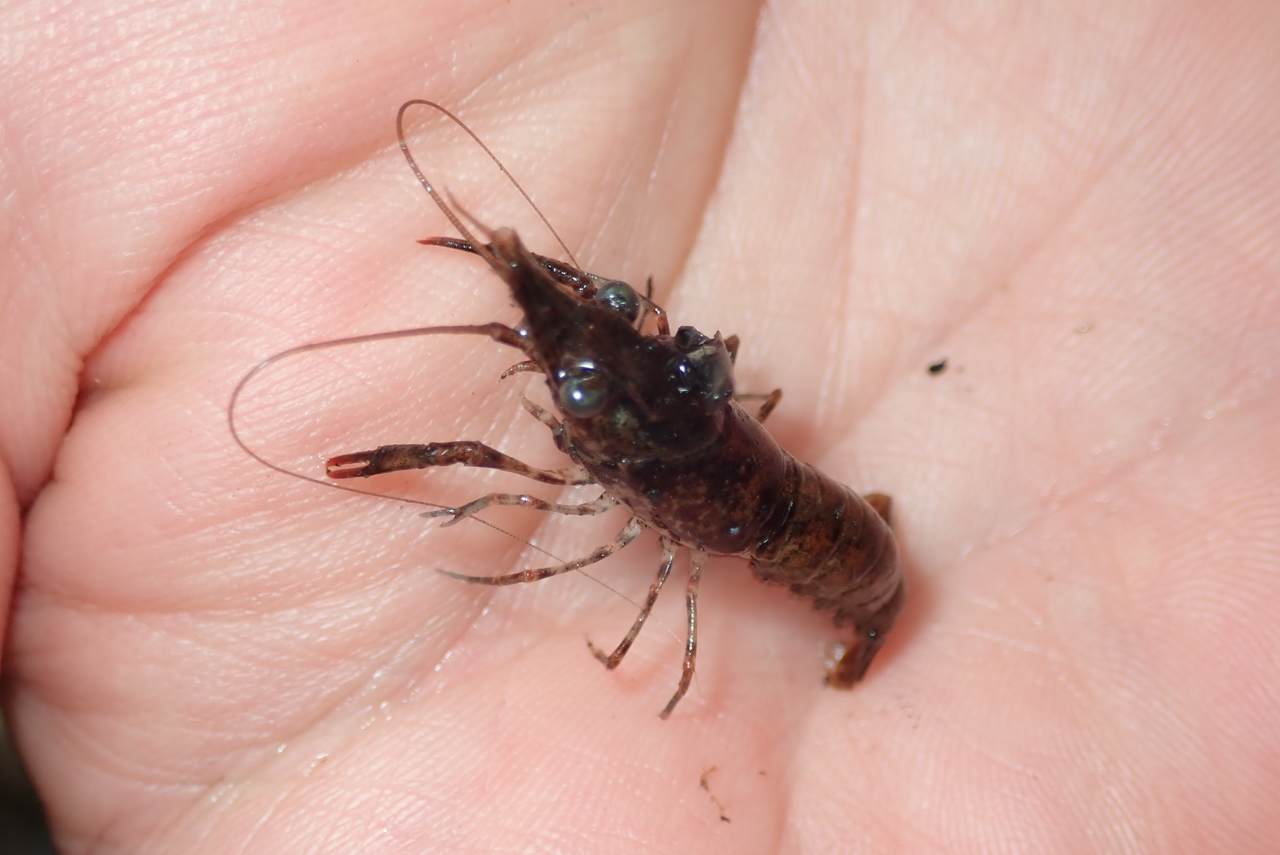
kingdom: Animalia
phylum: Arthropoda
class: Malacostraca
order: Decapoda
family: Cambaridae
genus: Faxonius
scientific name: Faxonius lancifer
